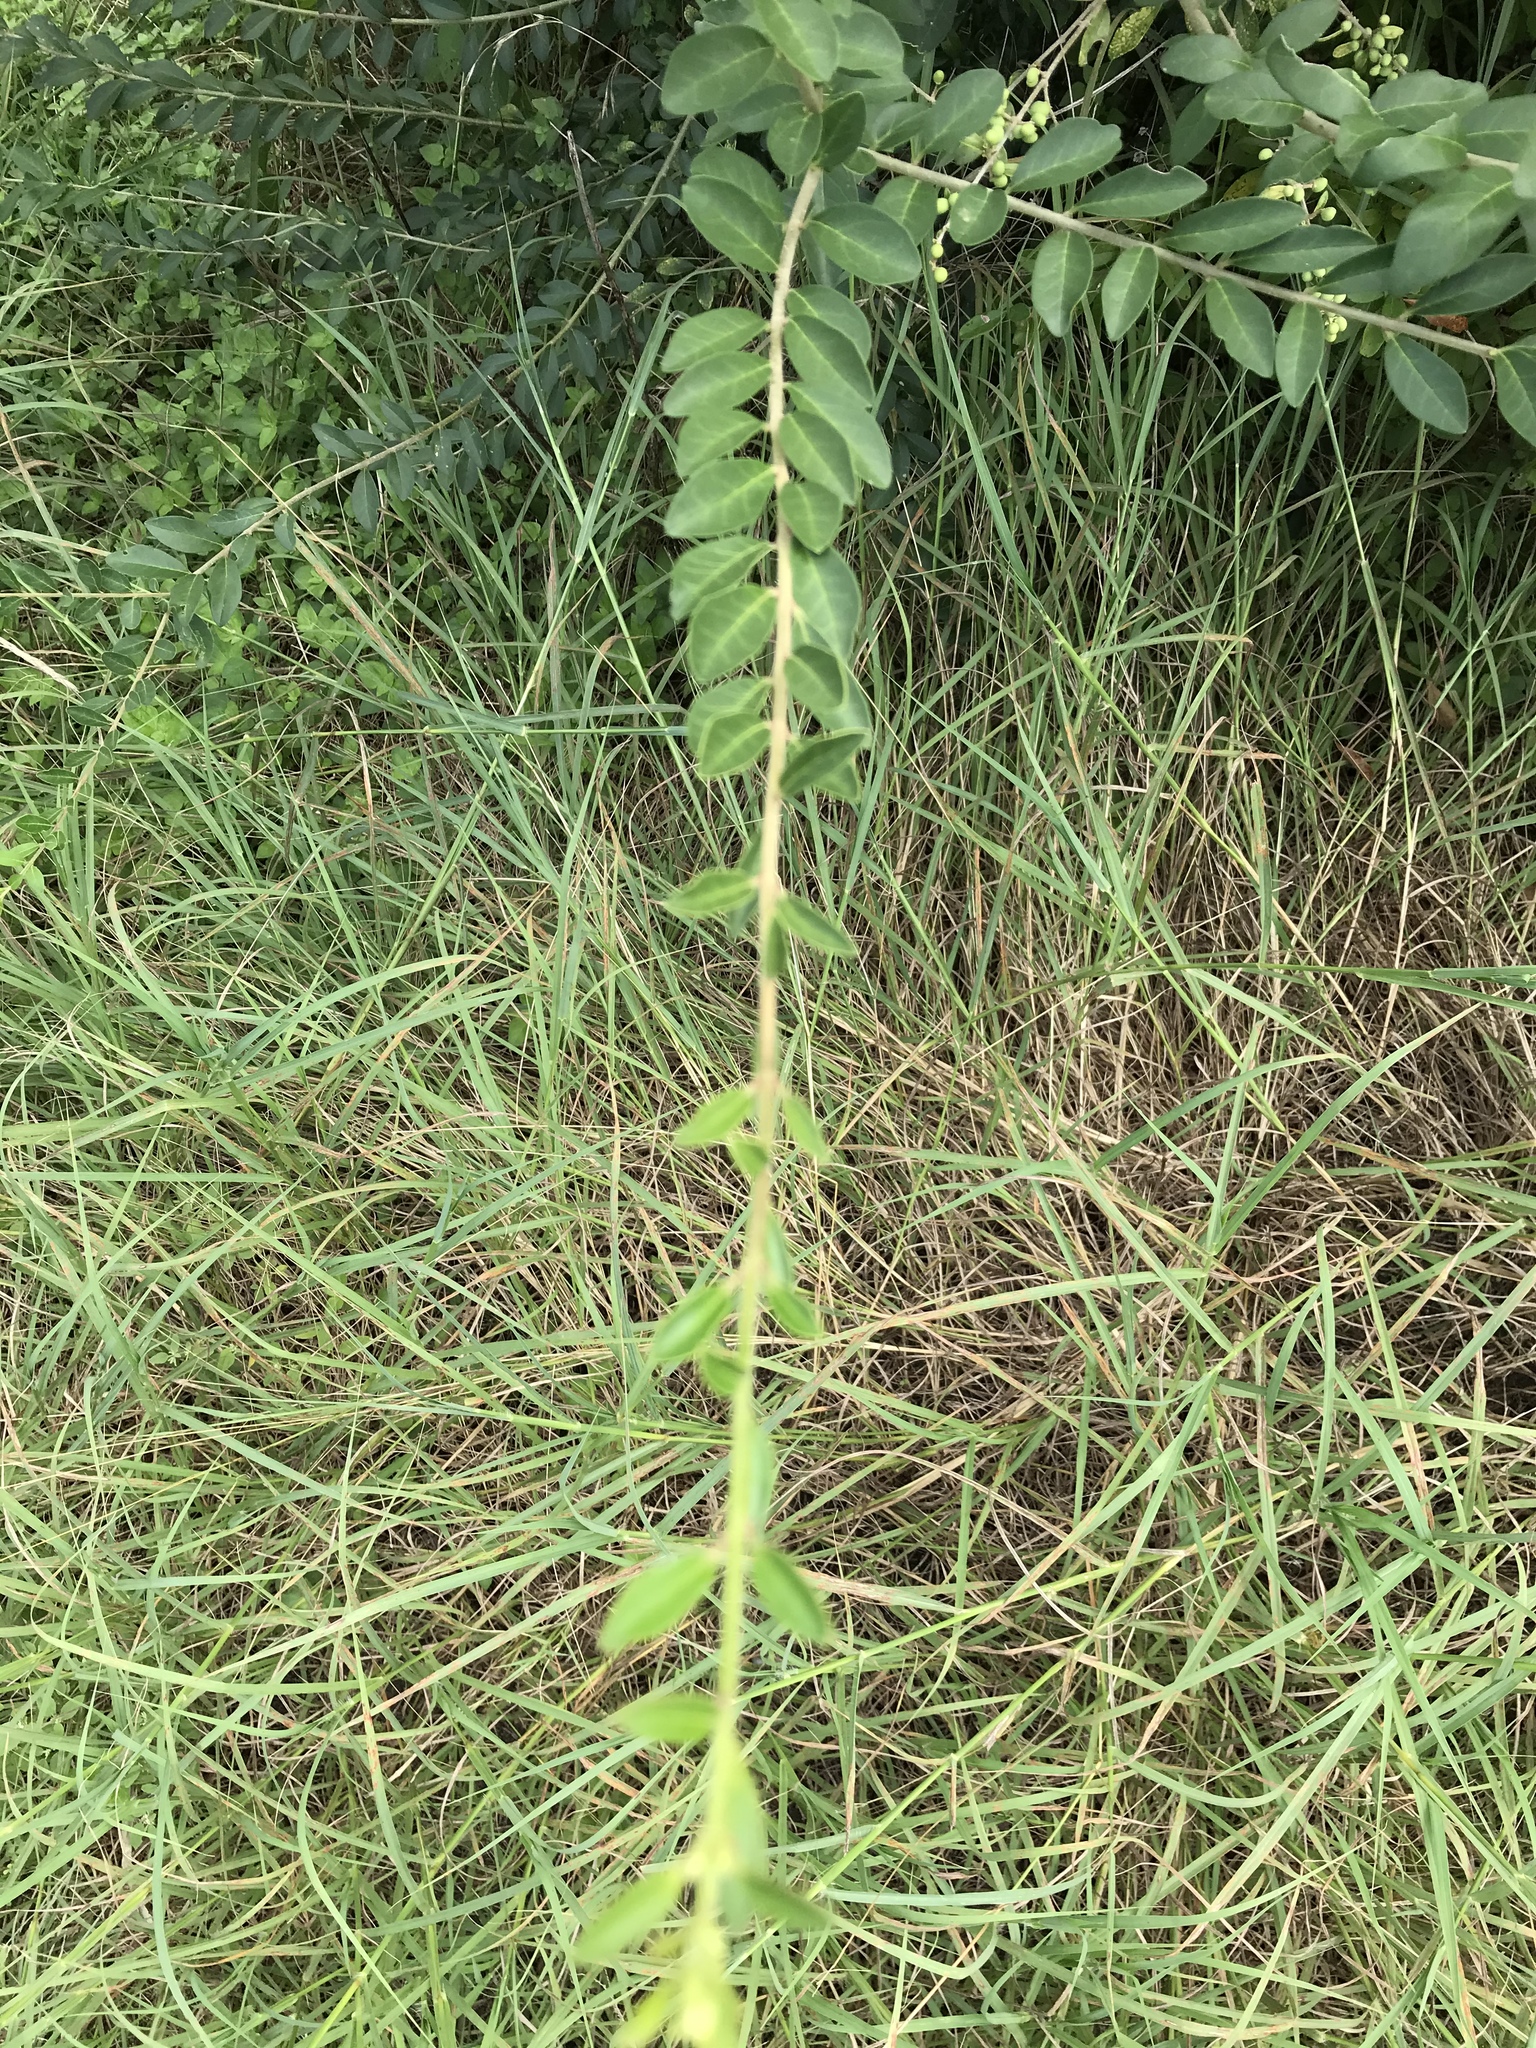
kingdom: Plantae
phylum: Tracheophyta
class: Magnoliopsida
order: Lamiales
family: Oleaceae
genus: Ligustrum
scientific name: Ligustrum quihoui
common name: Waxyleaf privet
